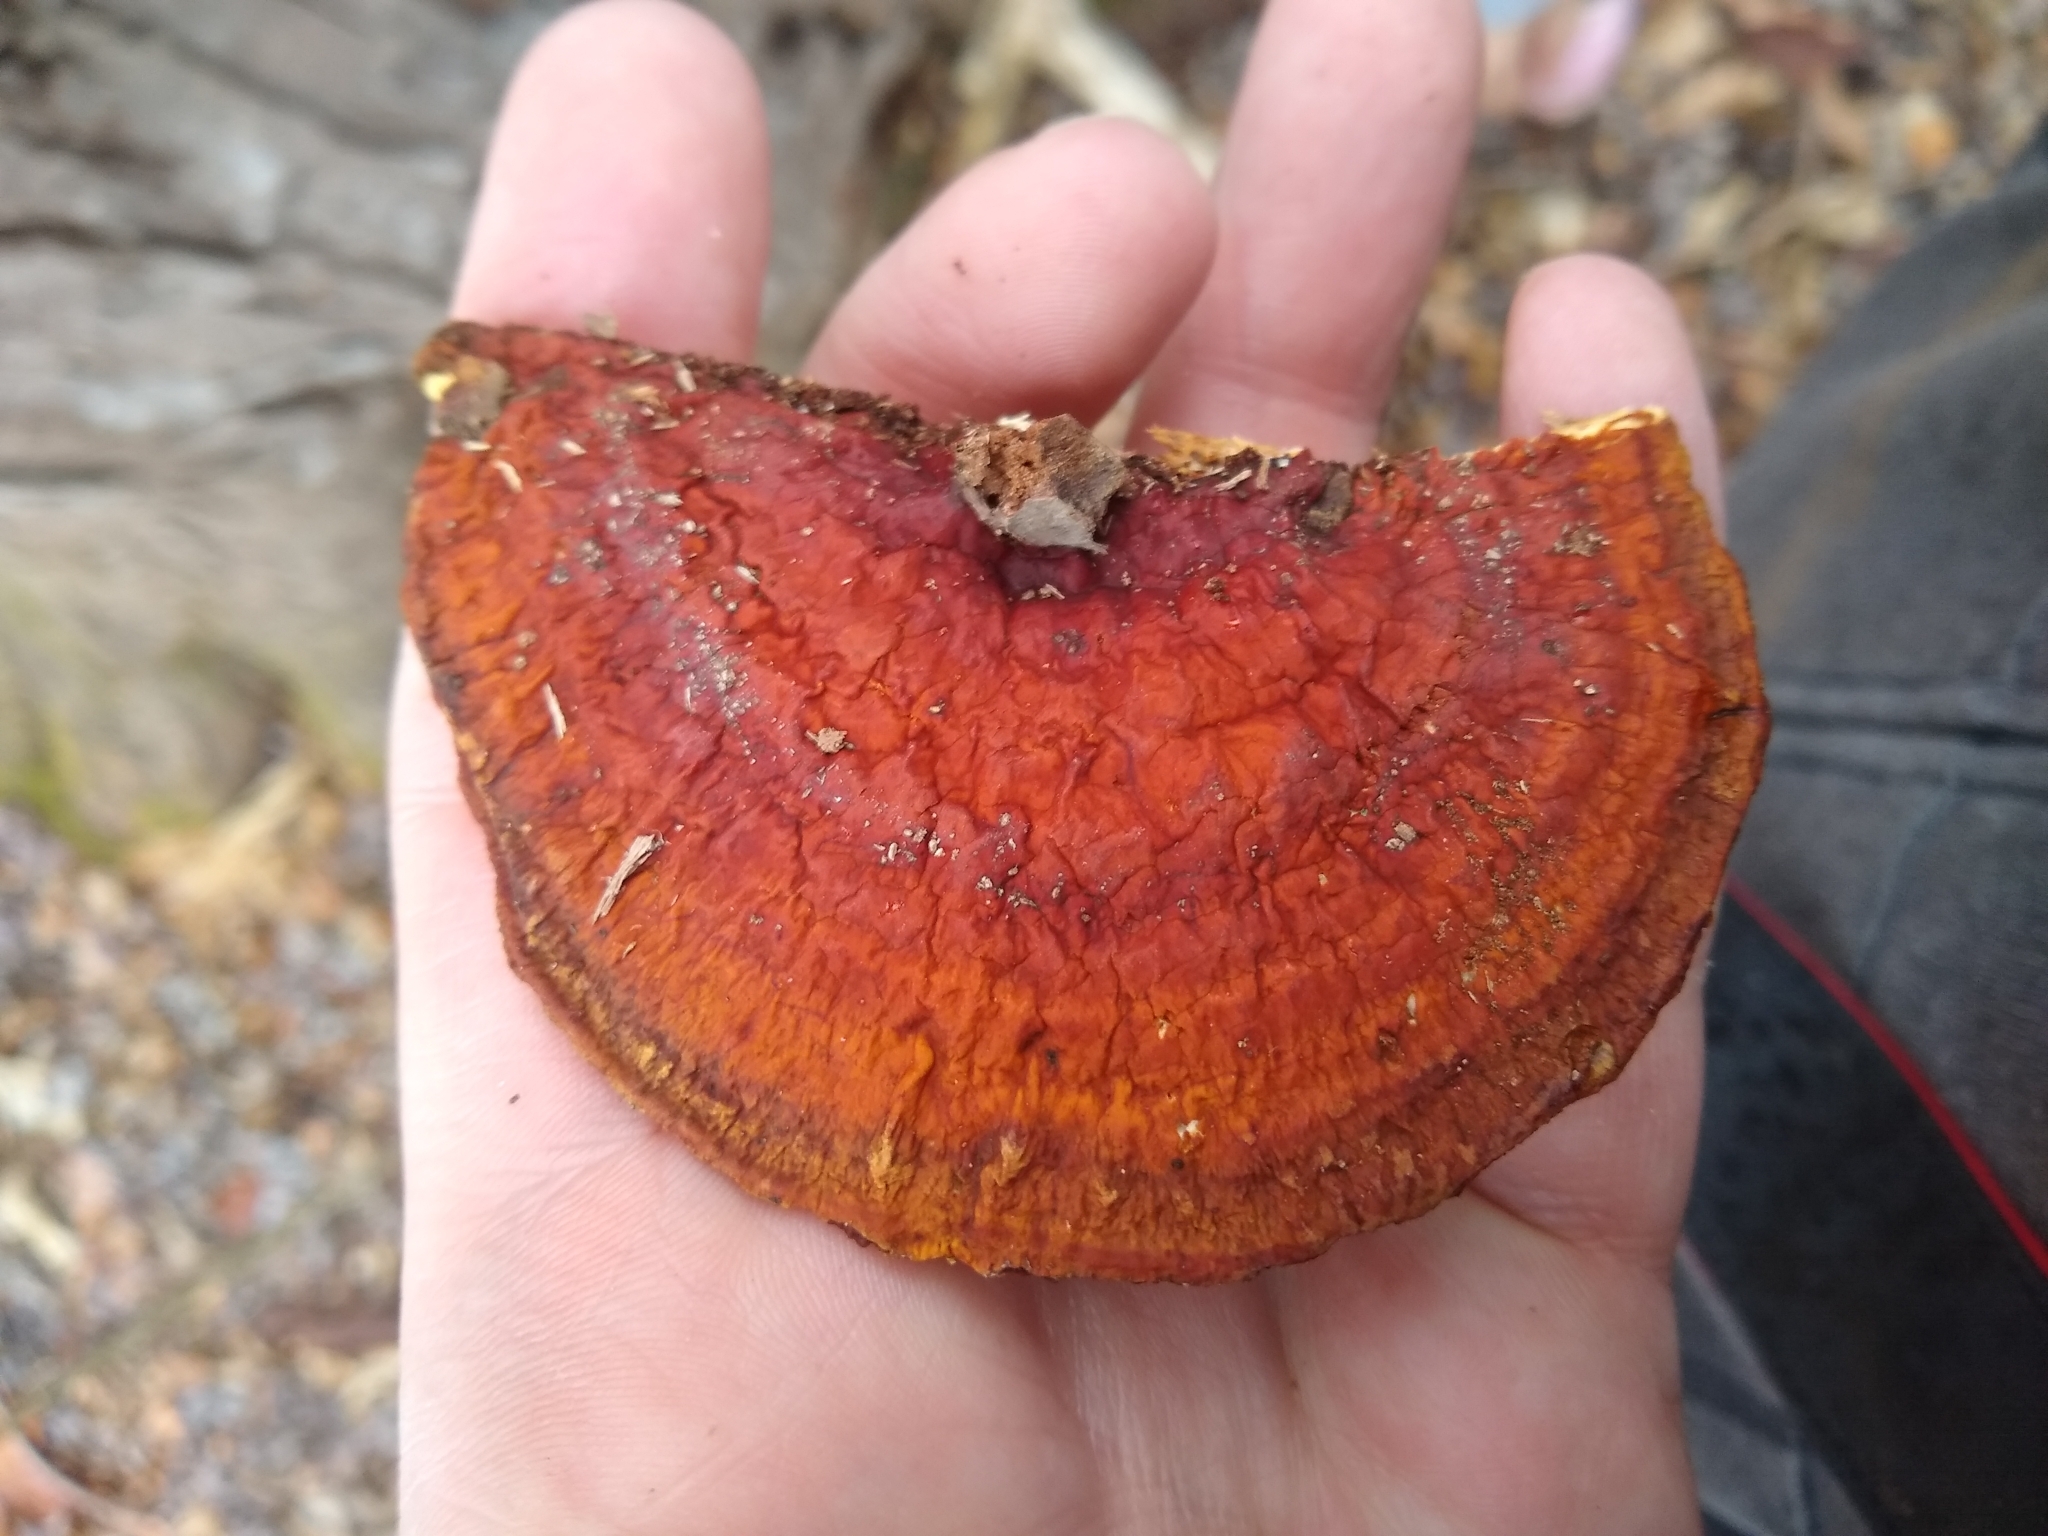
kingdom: Fungi
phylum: Basidiomycota
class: Agaricomycetes
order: Polyporales
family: Polyporaceae
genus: Ganoderma
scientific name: Ganoderma resinaceum
